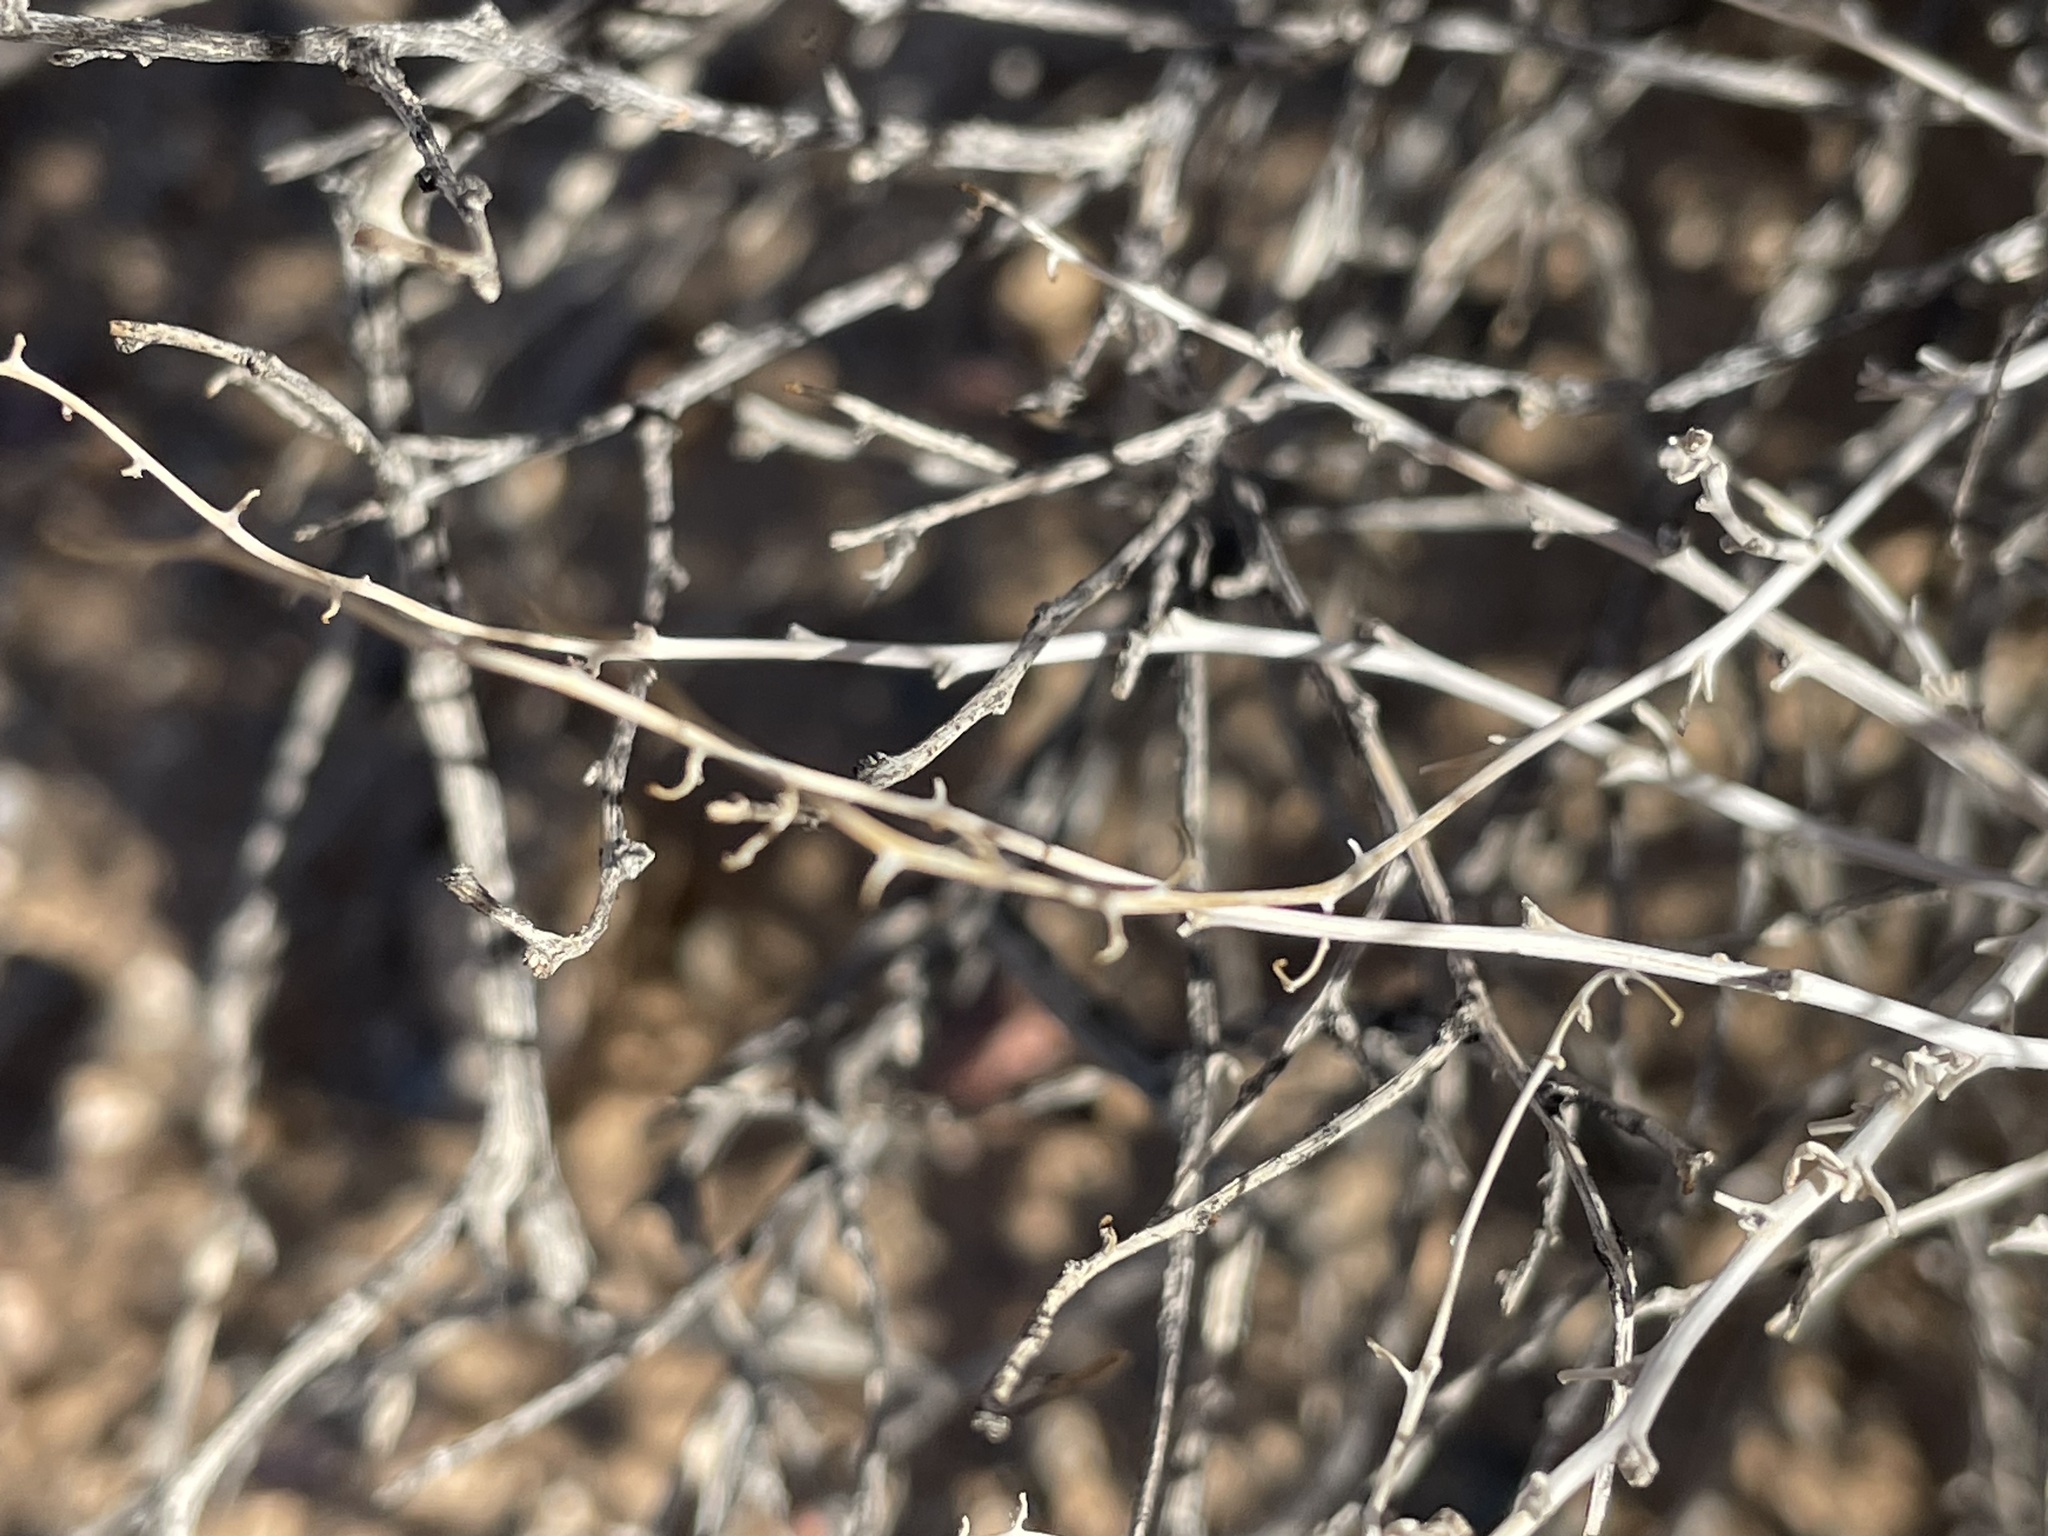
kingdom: Plantae
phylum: Tracheophyta
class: Magnoliopsida
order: Asterales
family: Asteraceae
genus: Ambrosia
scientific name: Ambrosia dumosa
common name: Bur-sage
